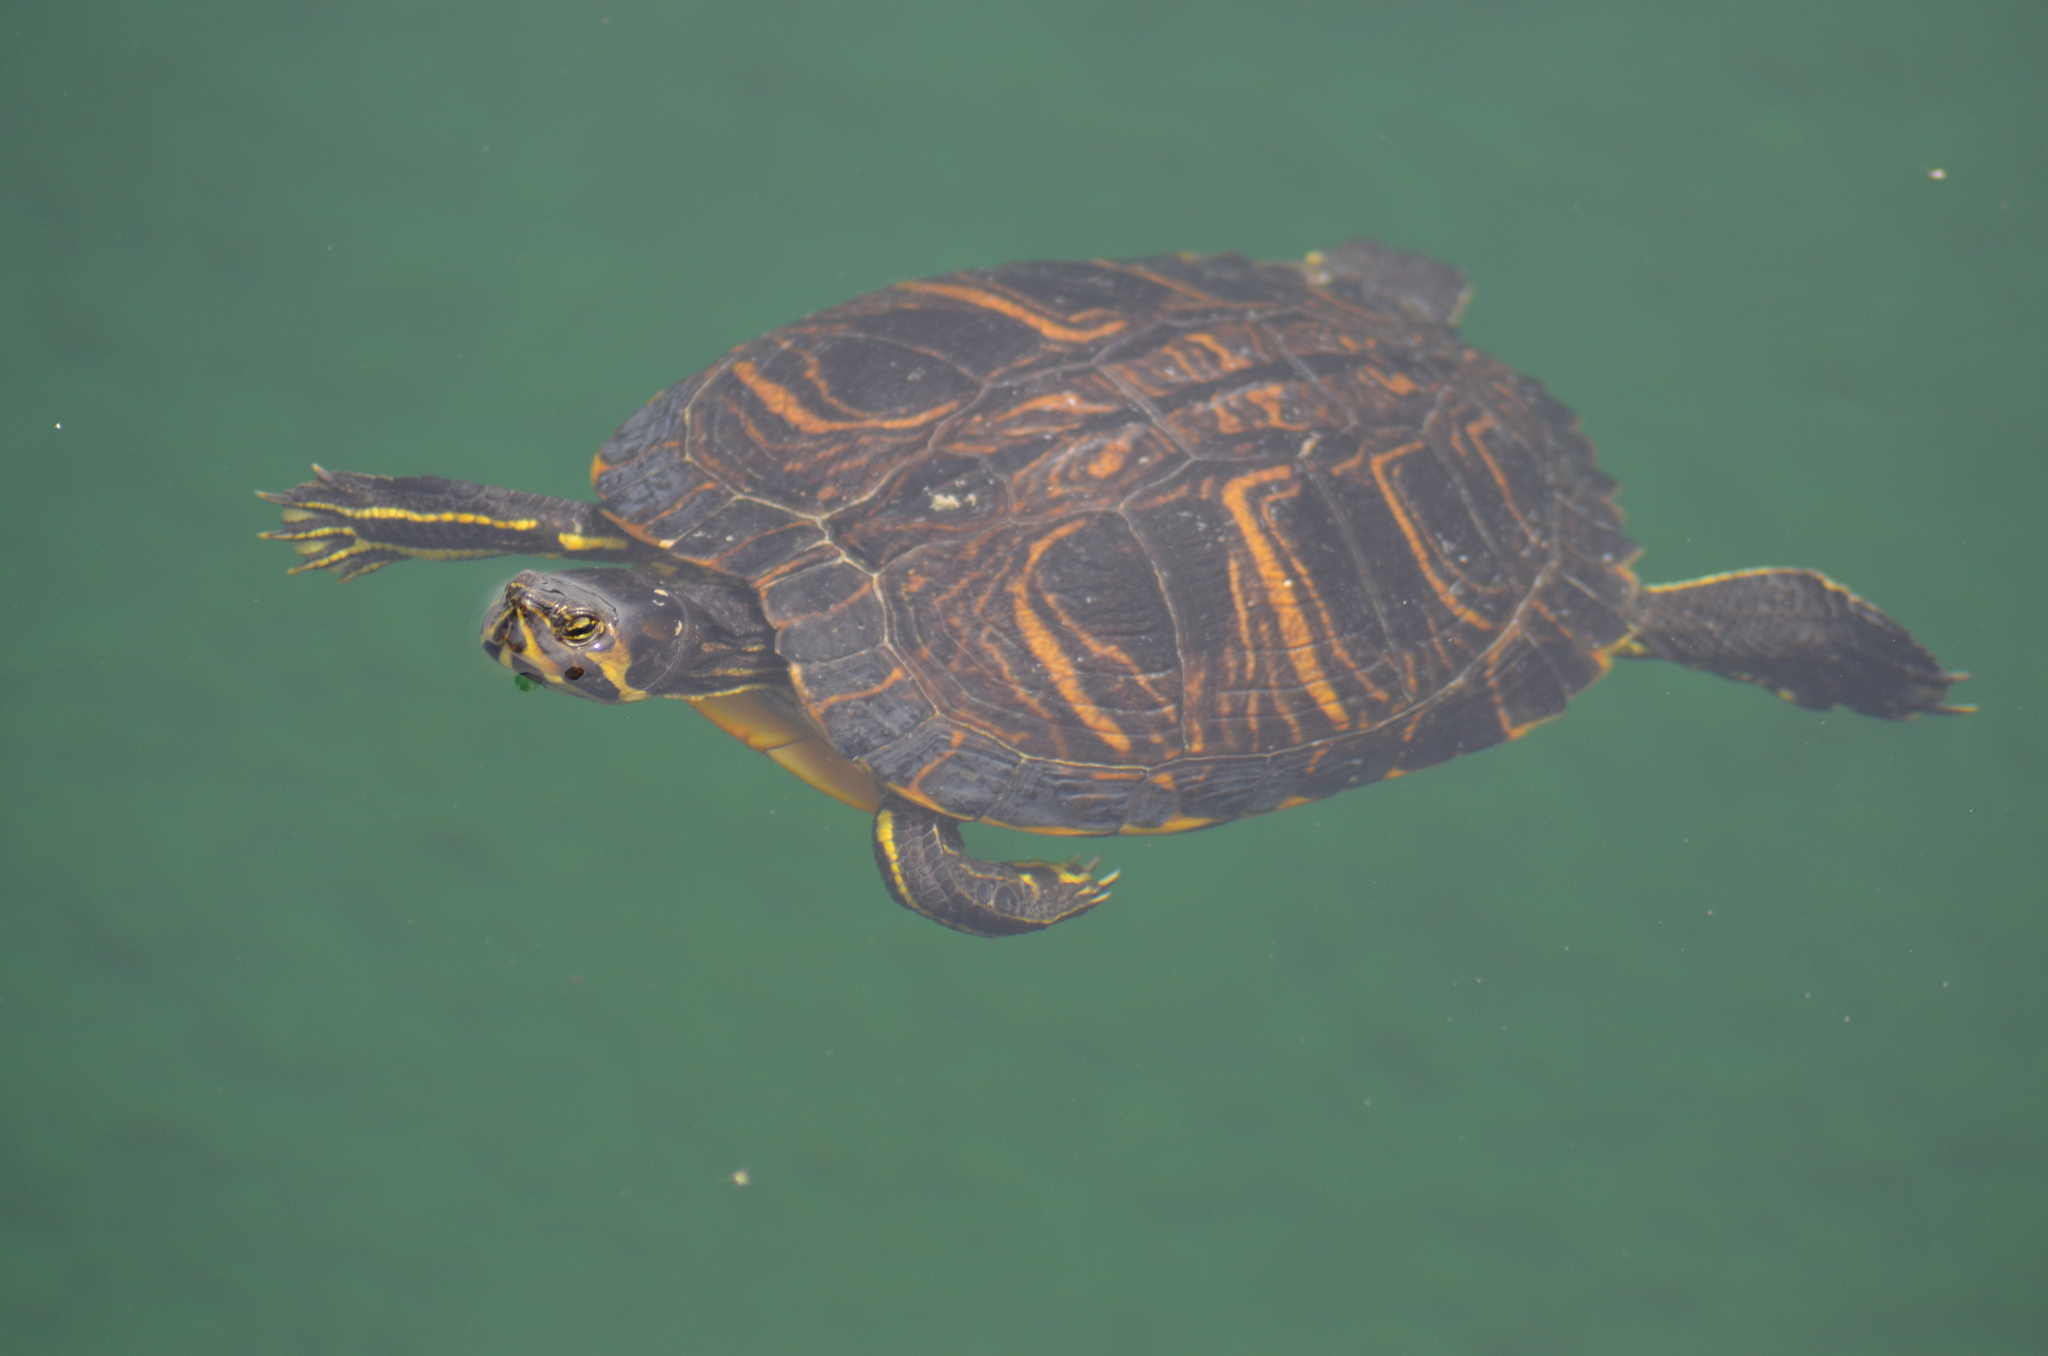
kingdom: Animalia
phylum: Chordata
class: Testudines
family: Emydidae
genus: Trachemys
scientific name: Trachemys scripta
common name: Slider
